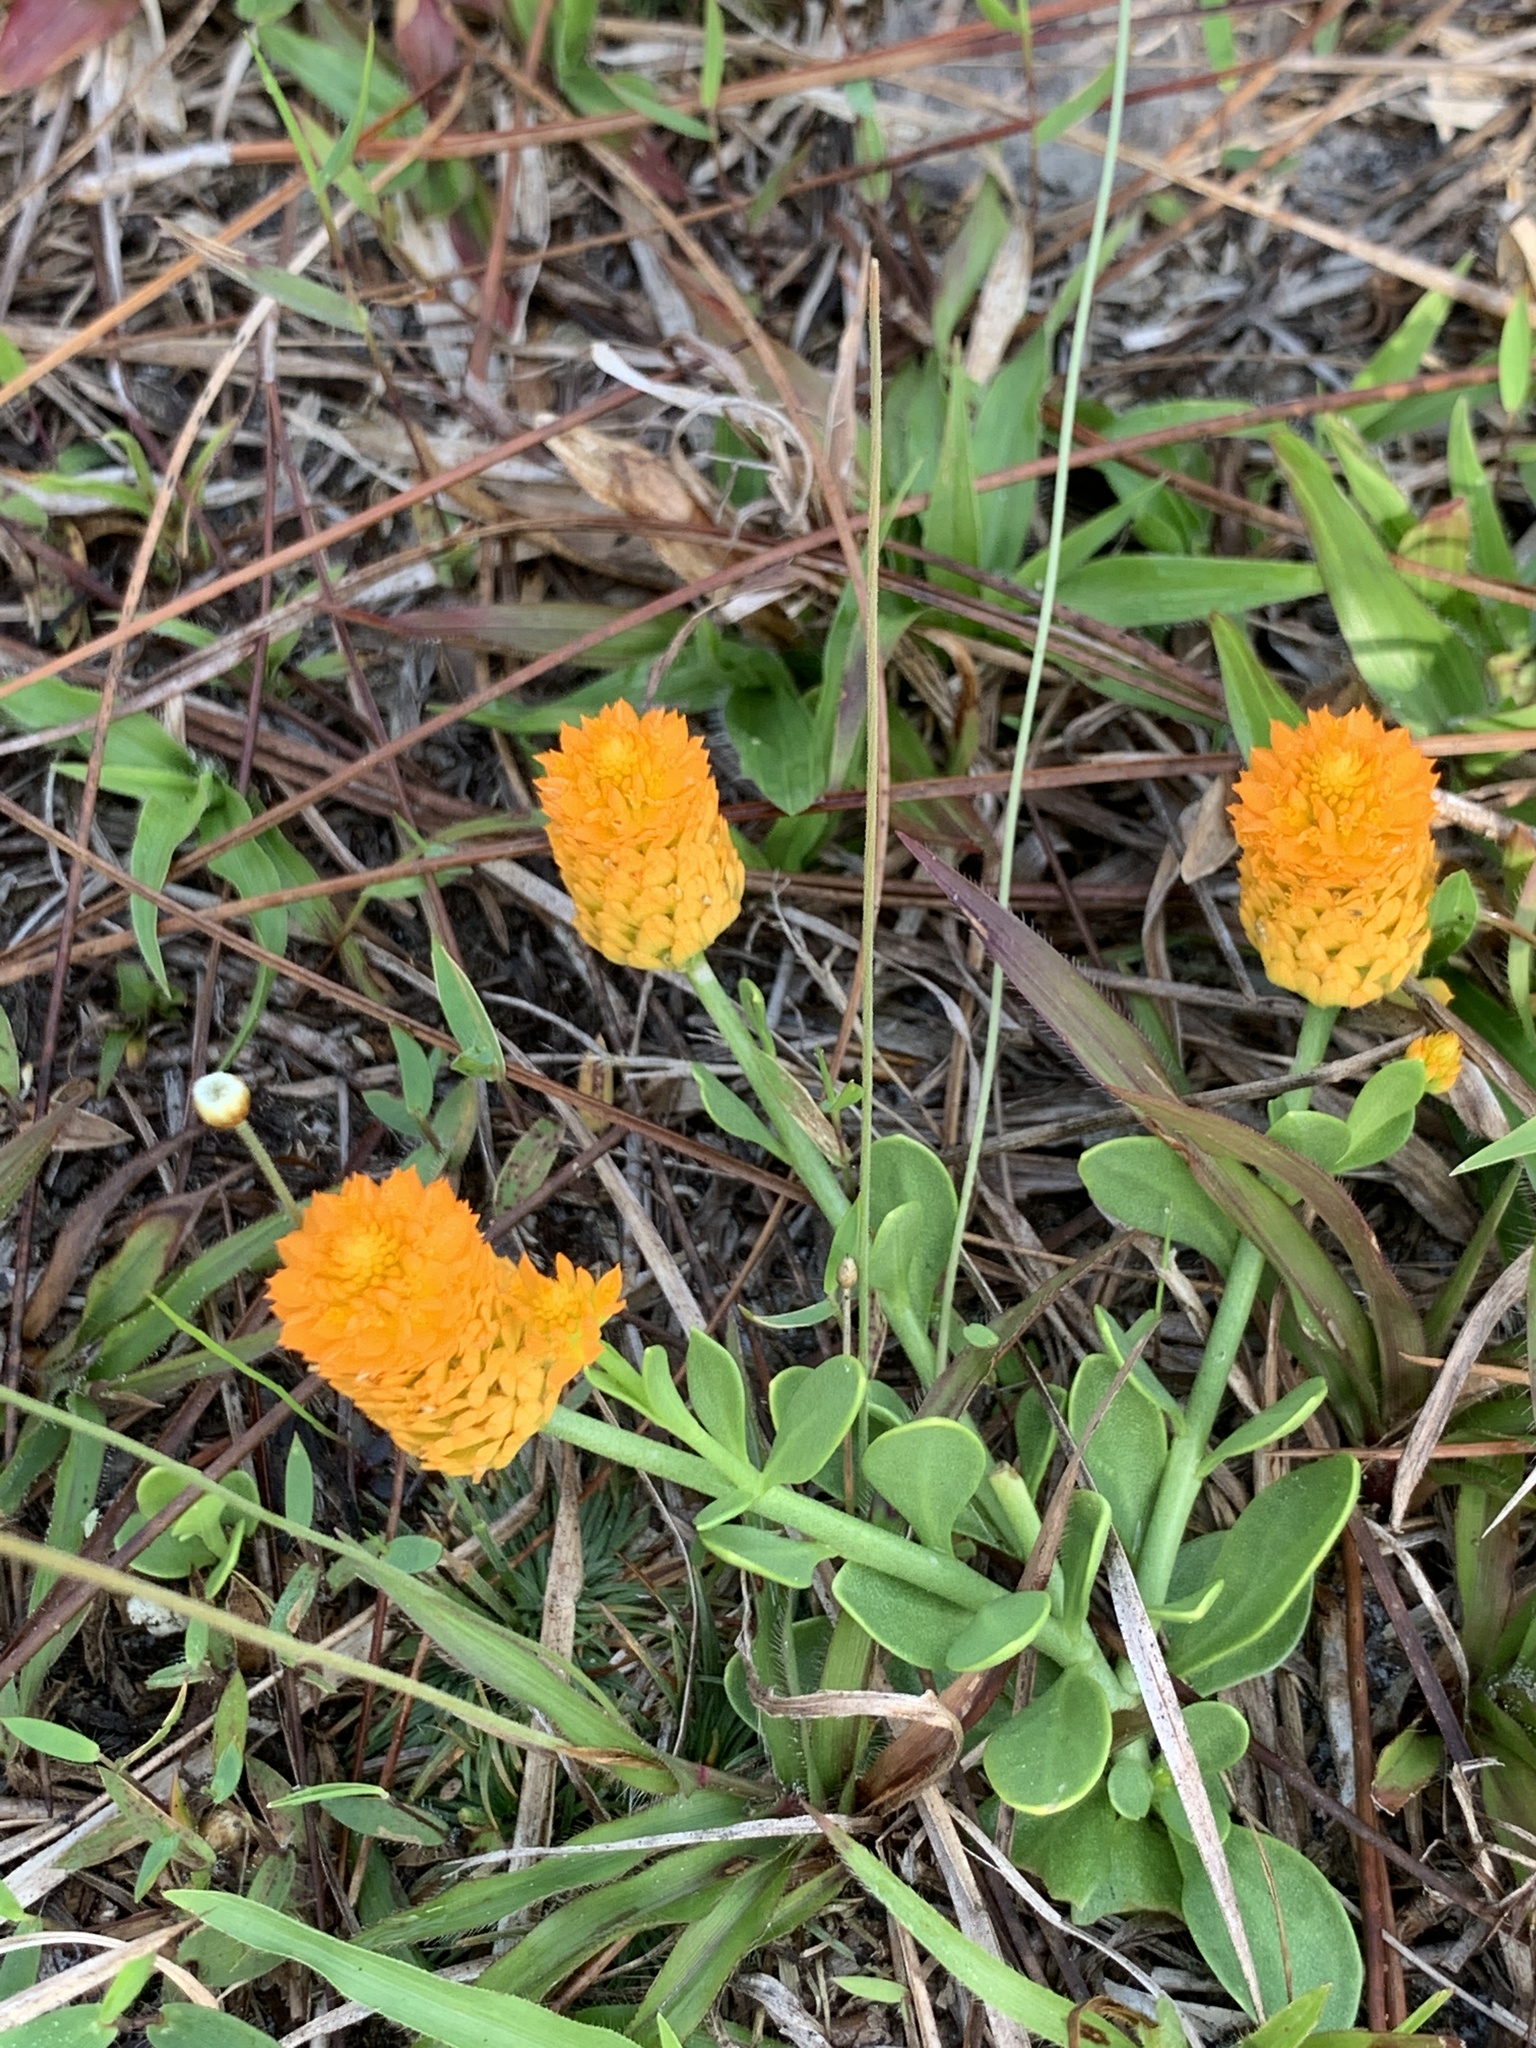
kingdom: Plantae
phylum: Tracheophyta
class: Magnoliopsida
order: Fabales
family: Polygalaceae
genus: Polygala
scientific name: Polygala lutea
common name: Orange milkwort
